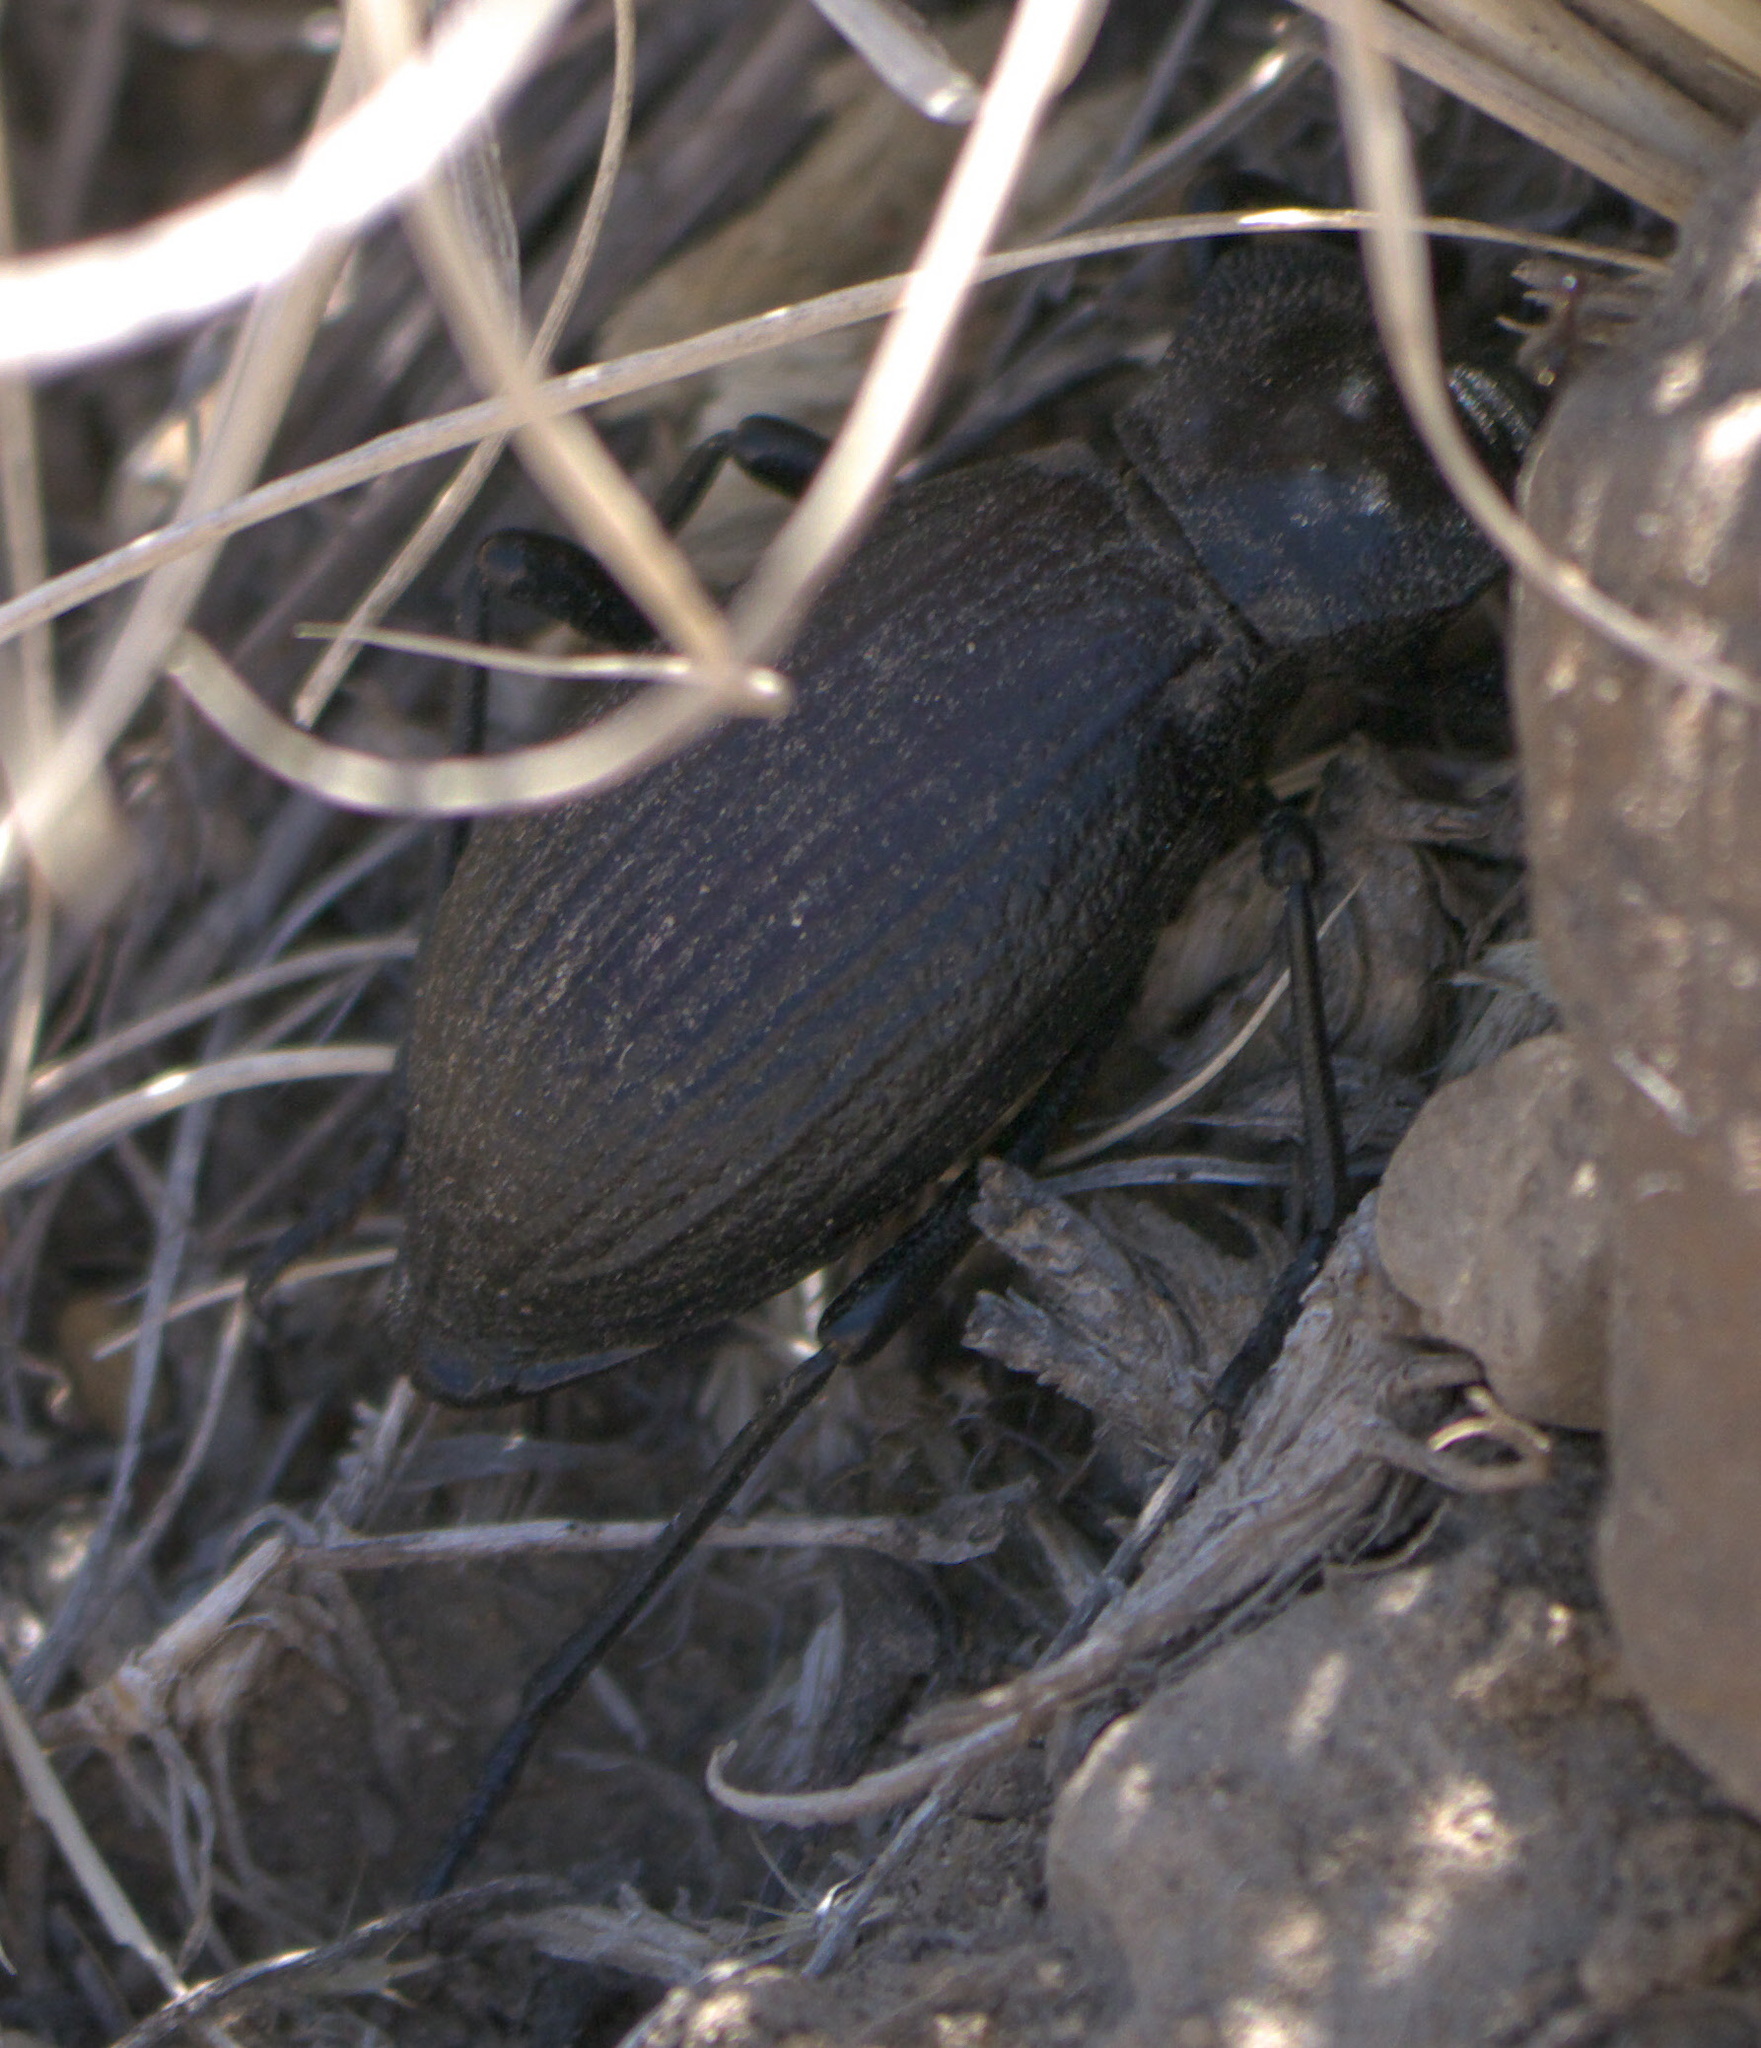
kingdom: Animalia
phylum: Arthropoda
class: Insecta
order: Coleoptera
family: Tenebrionidae
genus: Philolithus
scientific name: Philolithus elatus
